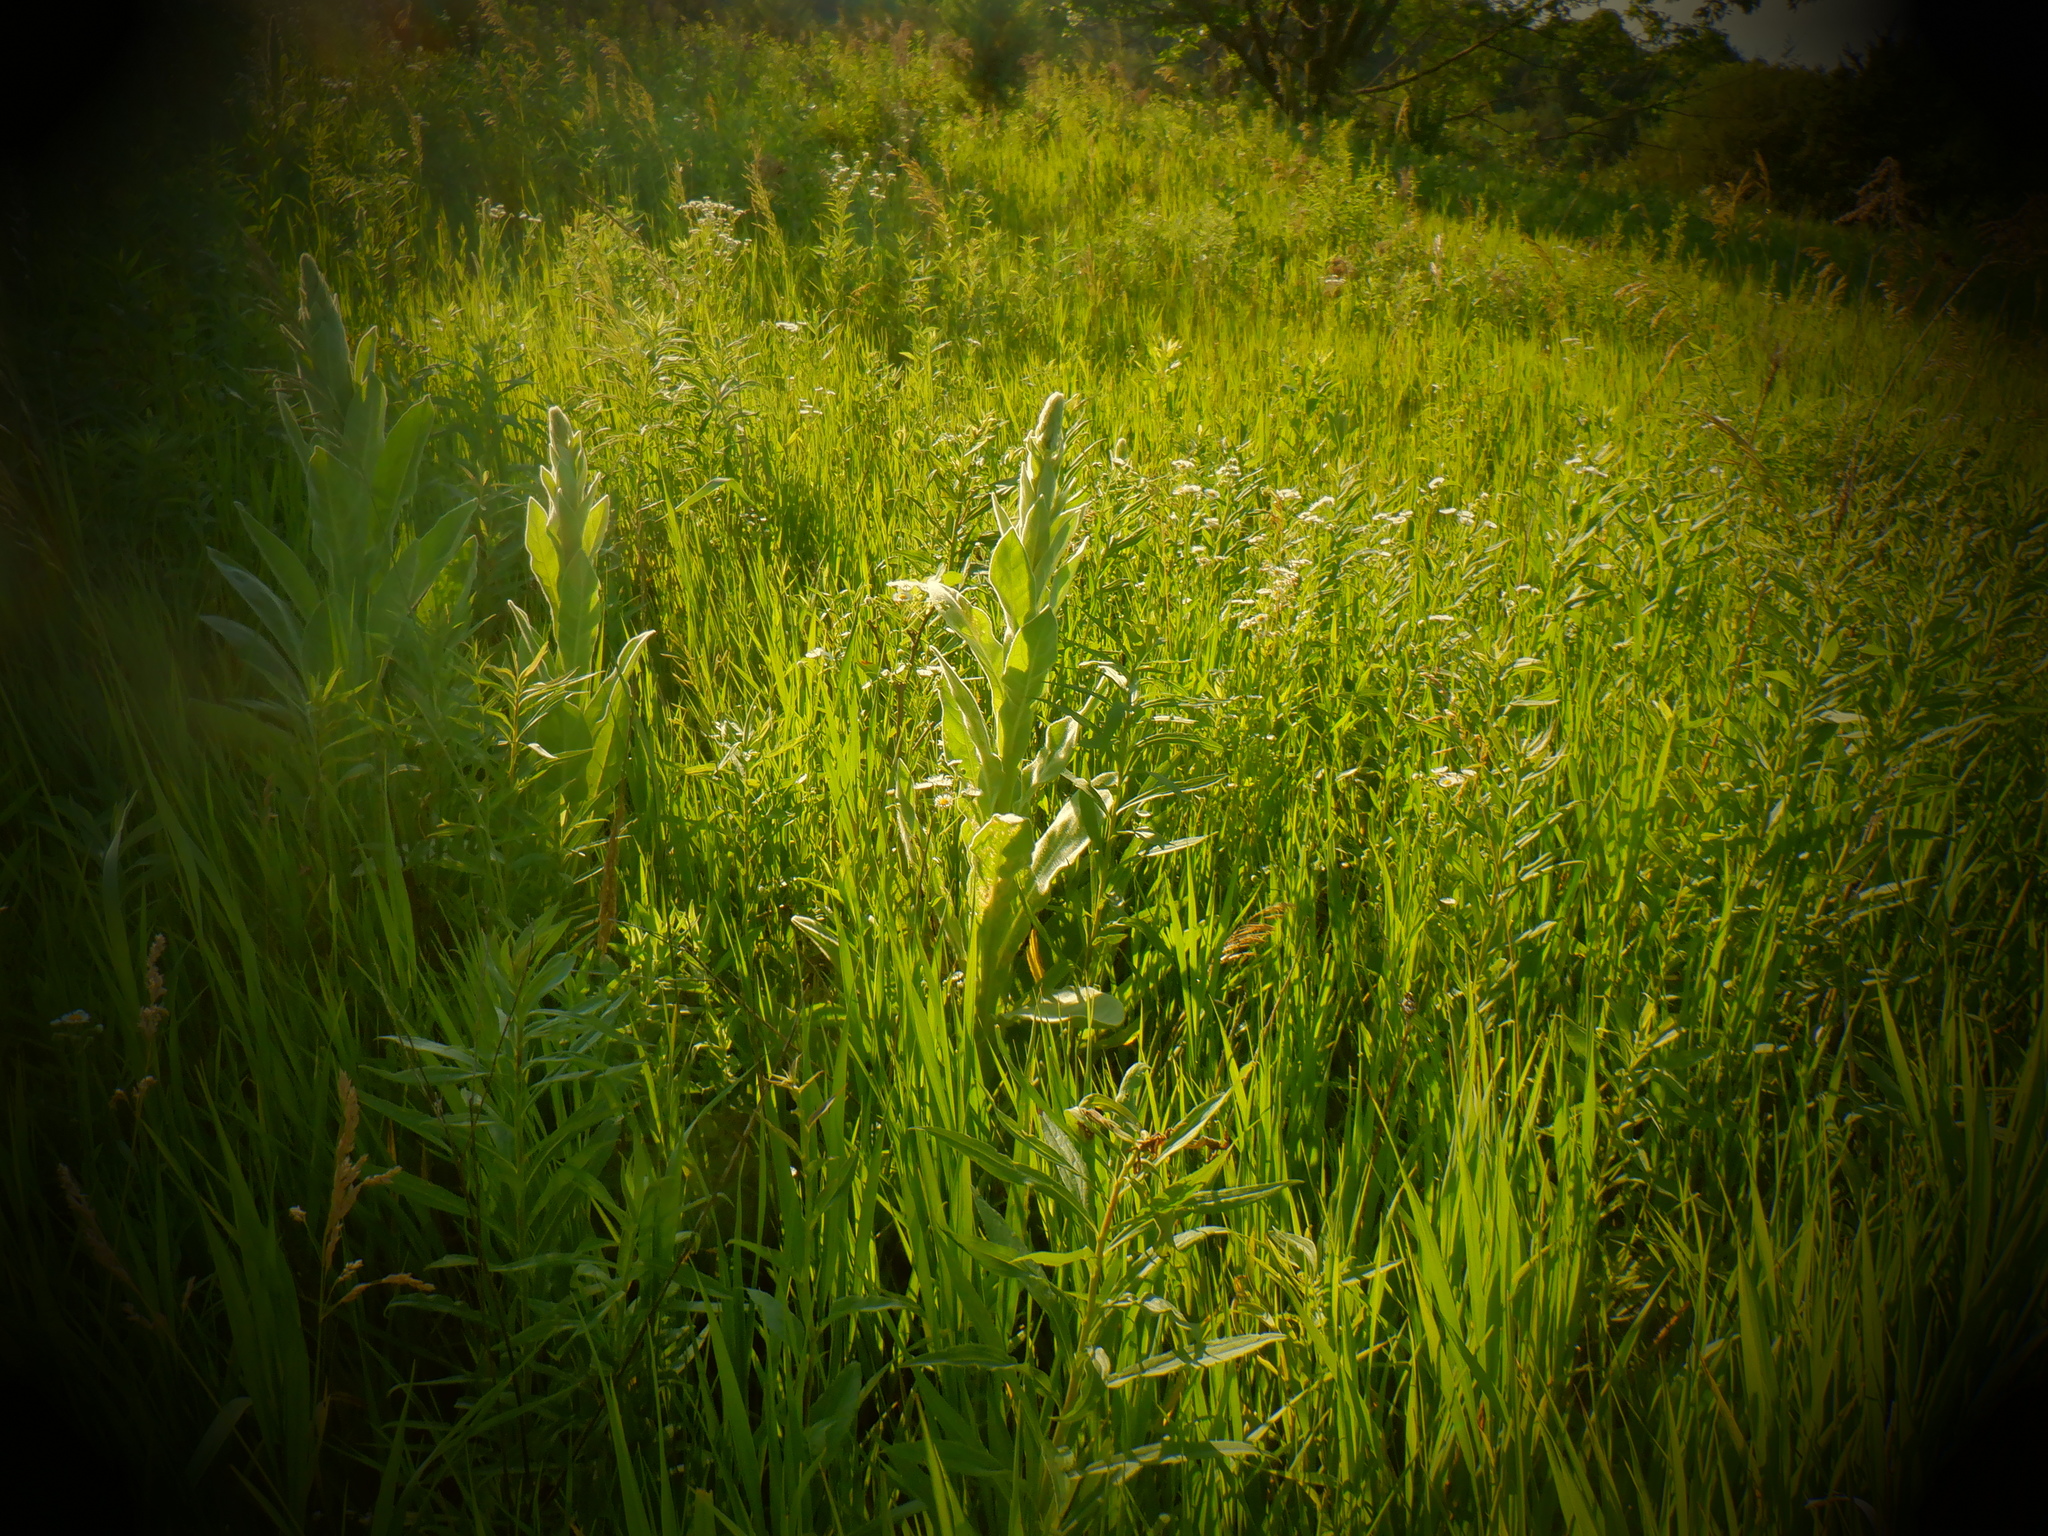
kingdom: Plantae
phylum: Tracheophyta
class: Magnoliopsida
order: Lamiales
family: Scrophulariaceae
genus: Verbascum
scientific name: Verbascum thapsus
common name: Common mullein
